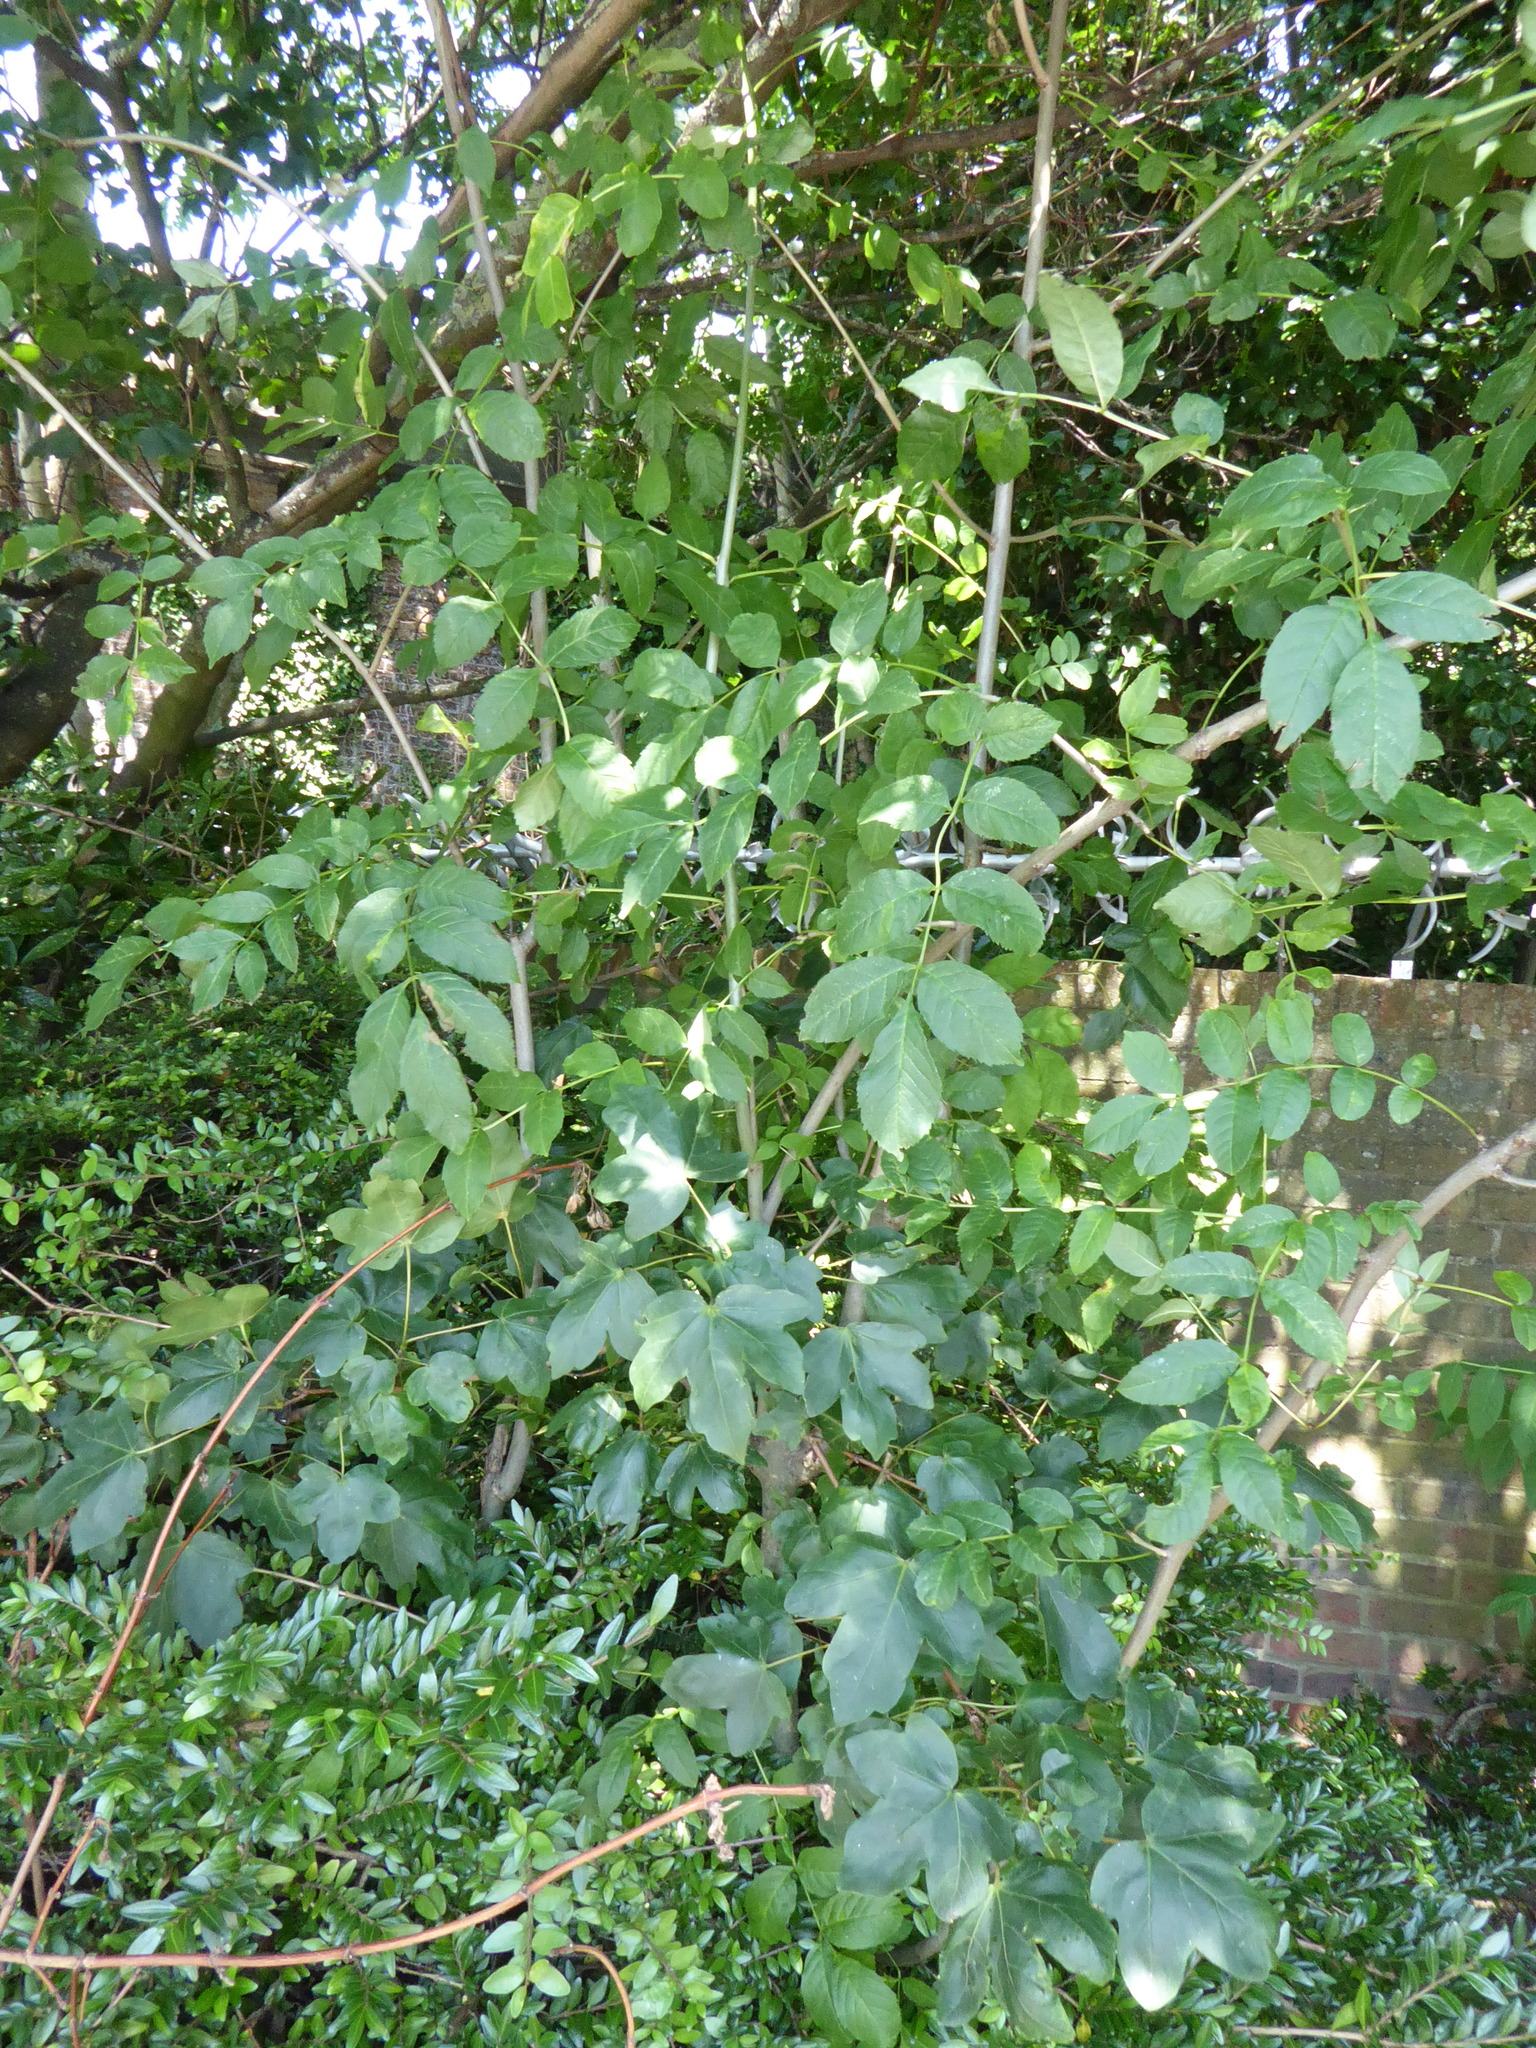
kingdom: Plantae
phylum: Tracheophyta
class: Magnoliopsida
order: Lamiales
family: Oleaceae
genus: Fraxinus
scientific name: Fraxinus excelsior
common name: European ash
